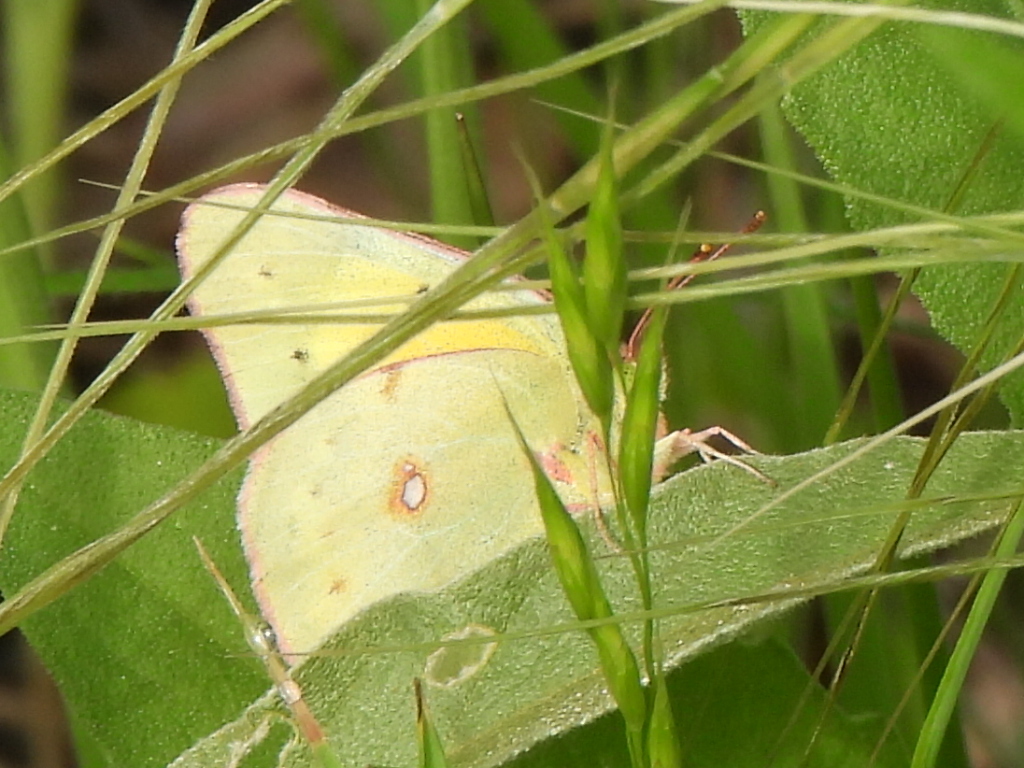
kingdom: Animalia
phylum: Arthropoda
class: Insecta
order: Lepidoptera
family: Pieridae
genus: Colias
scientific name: Colias eurytheme
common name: Alfalfa butterfly
